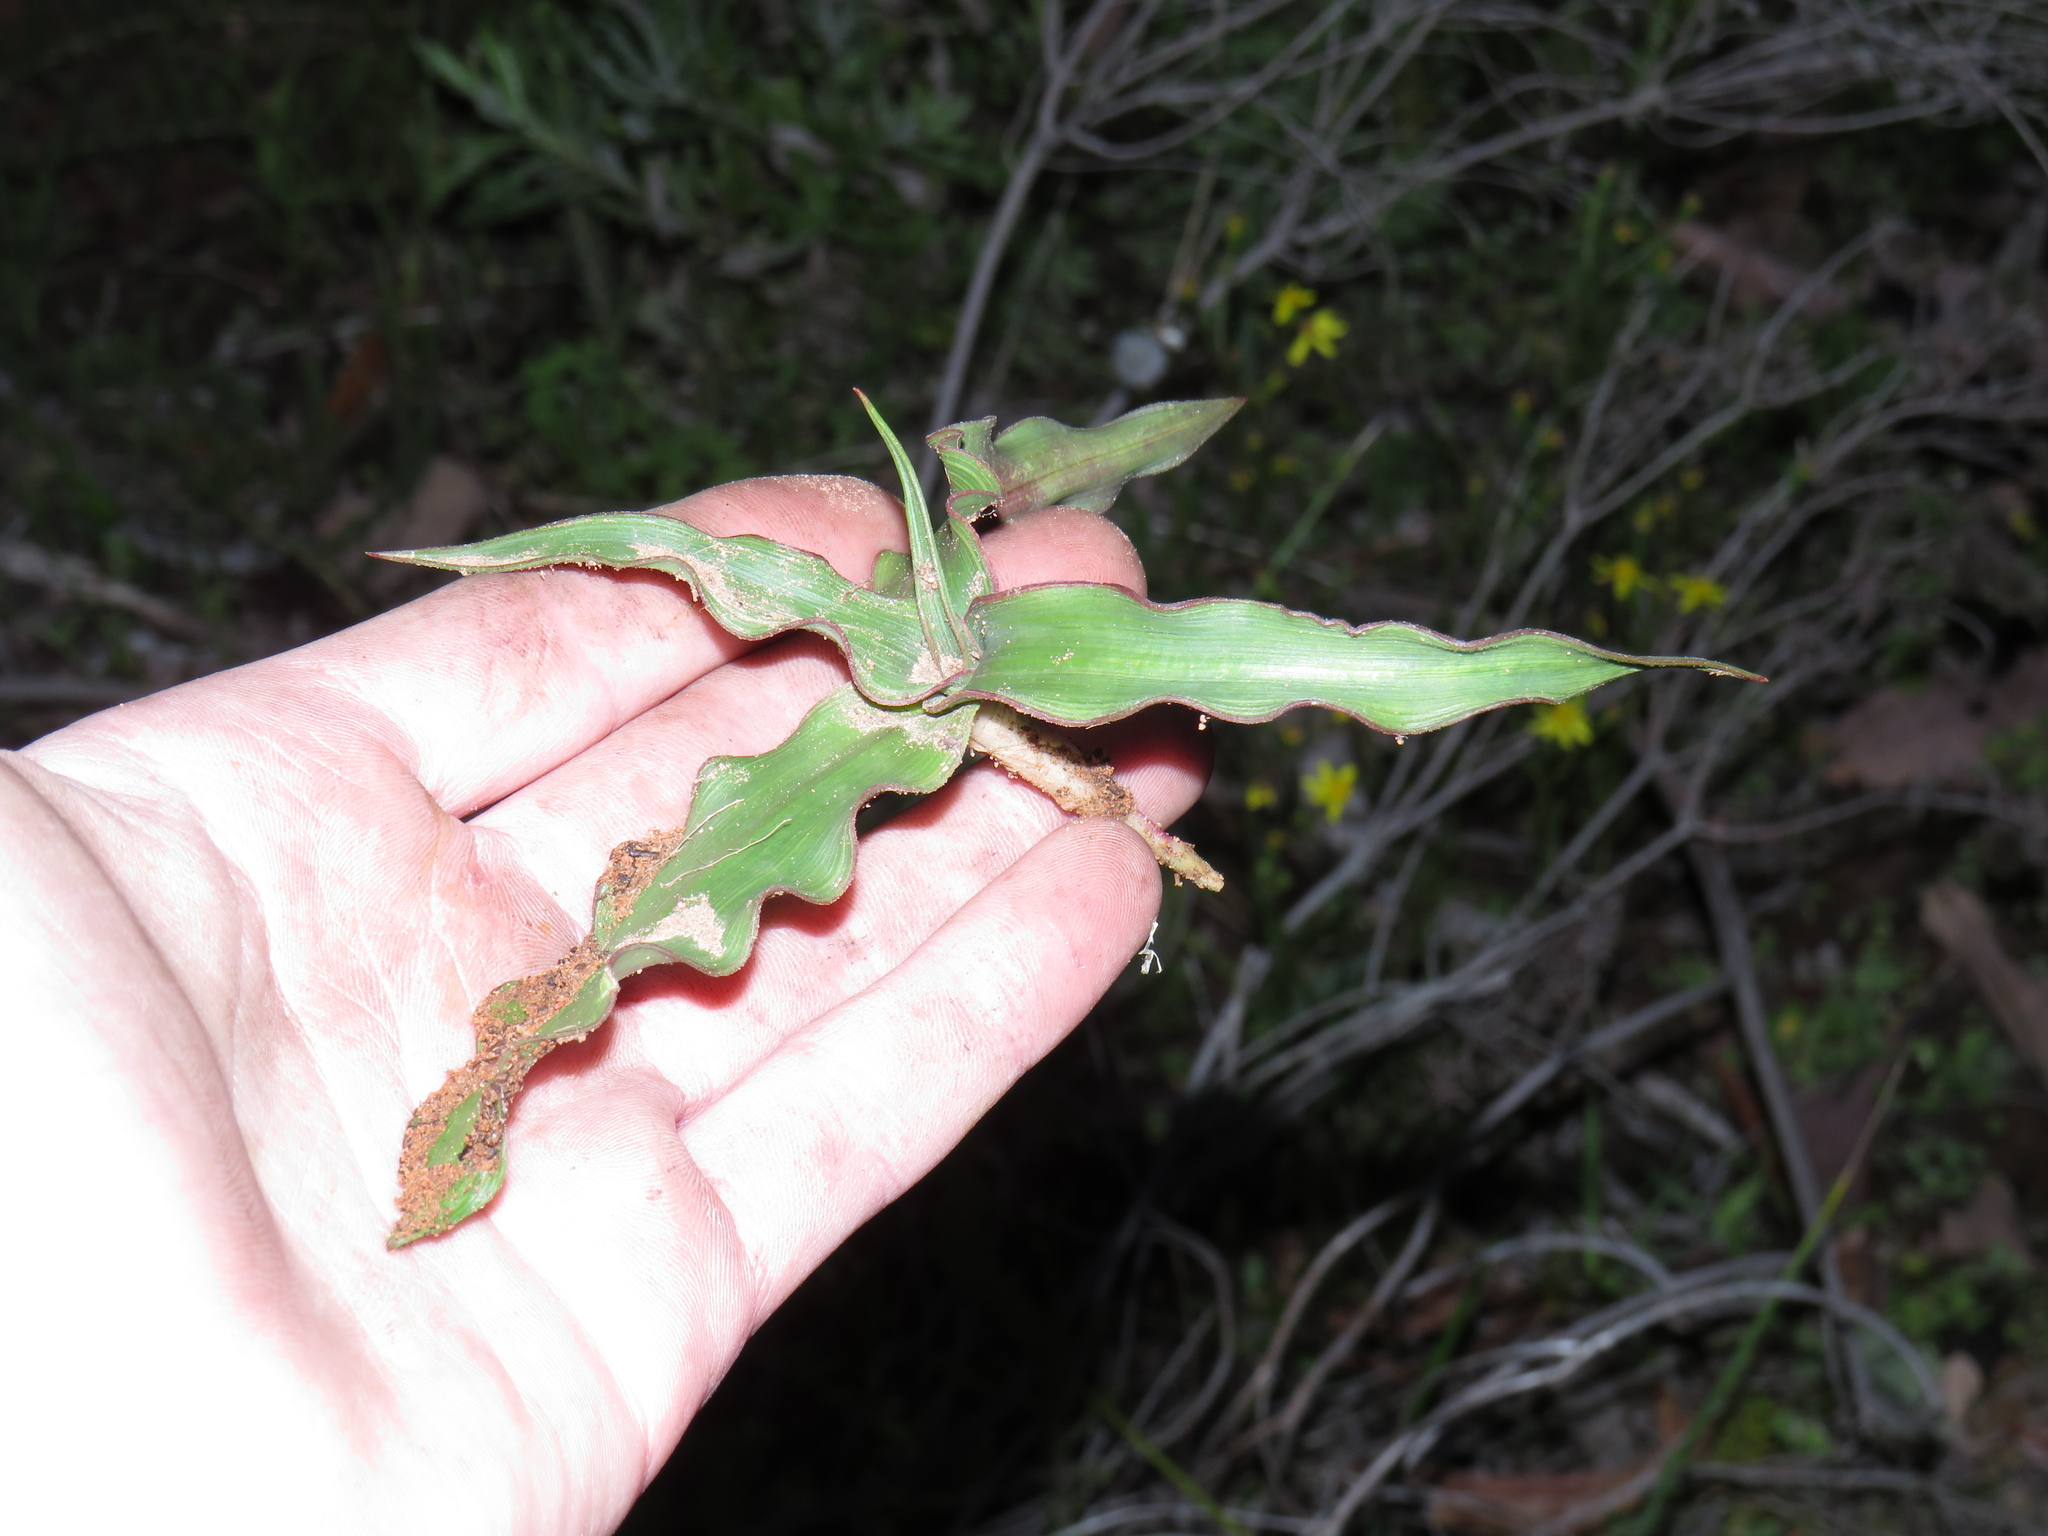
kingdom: Plantae
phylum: Tracheophyta
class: Liliopsida
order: Asparagales
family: Tecophilaeaceae
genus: Cyanella
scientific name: Cyanella hyacinthoides
